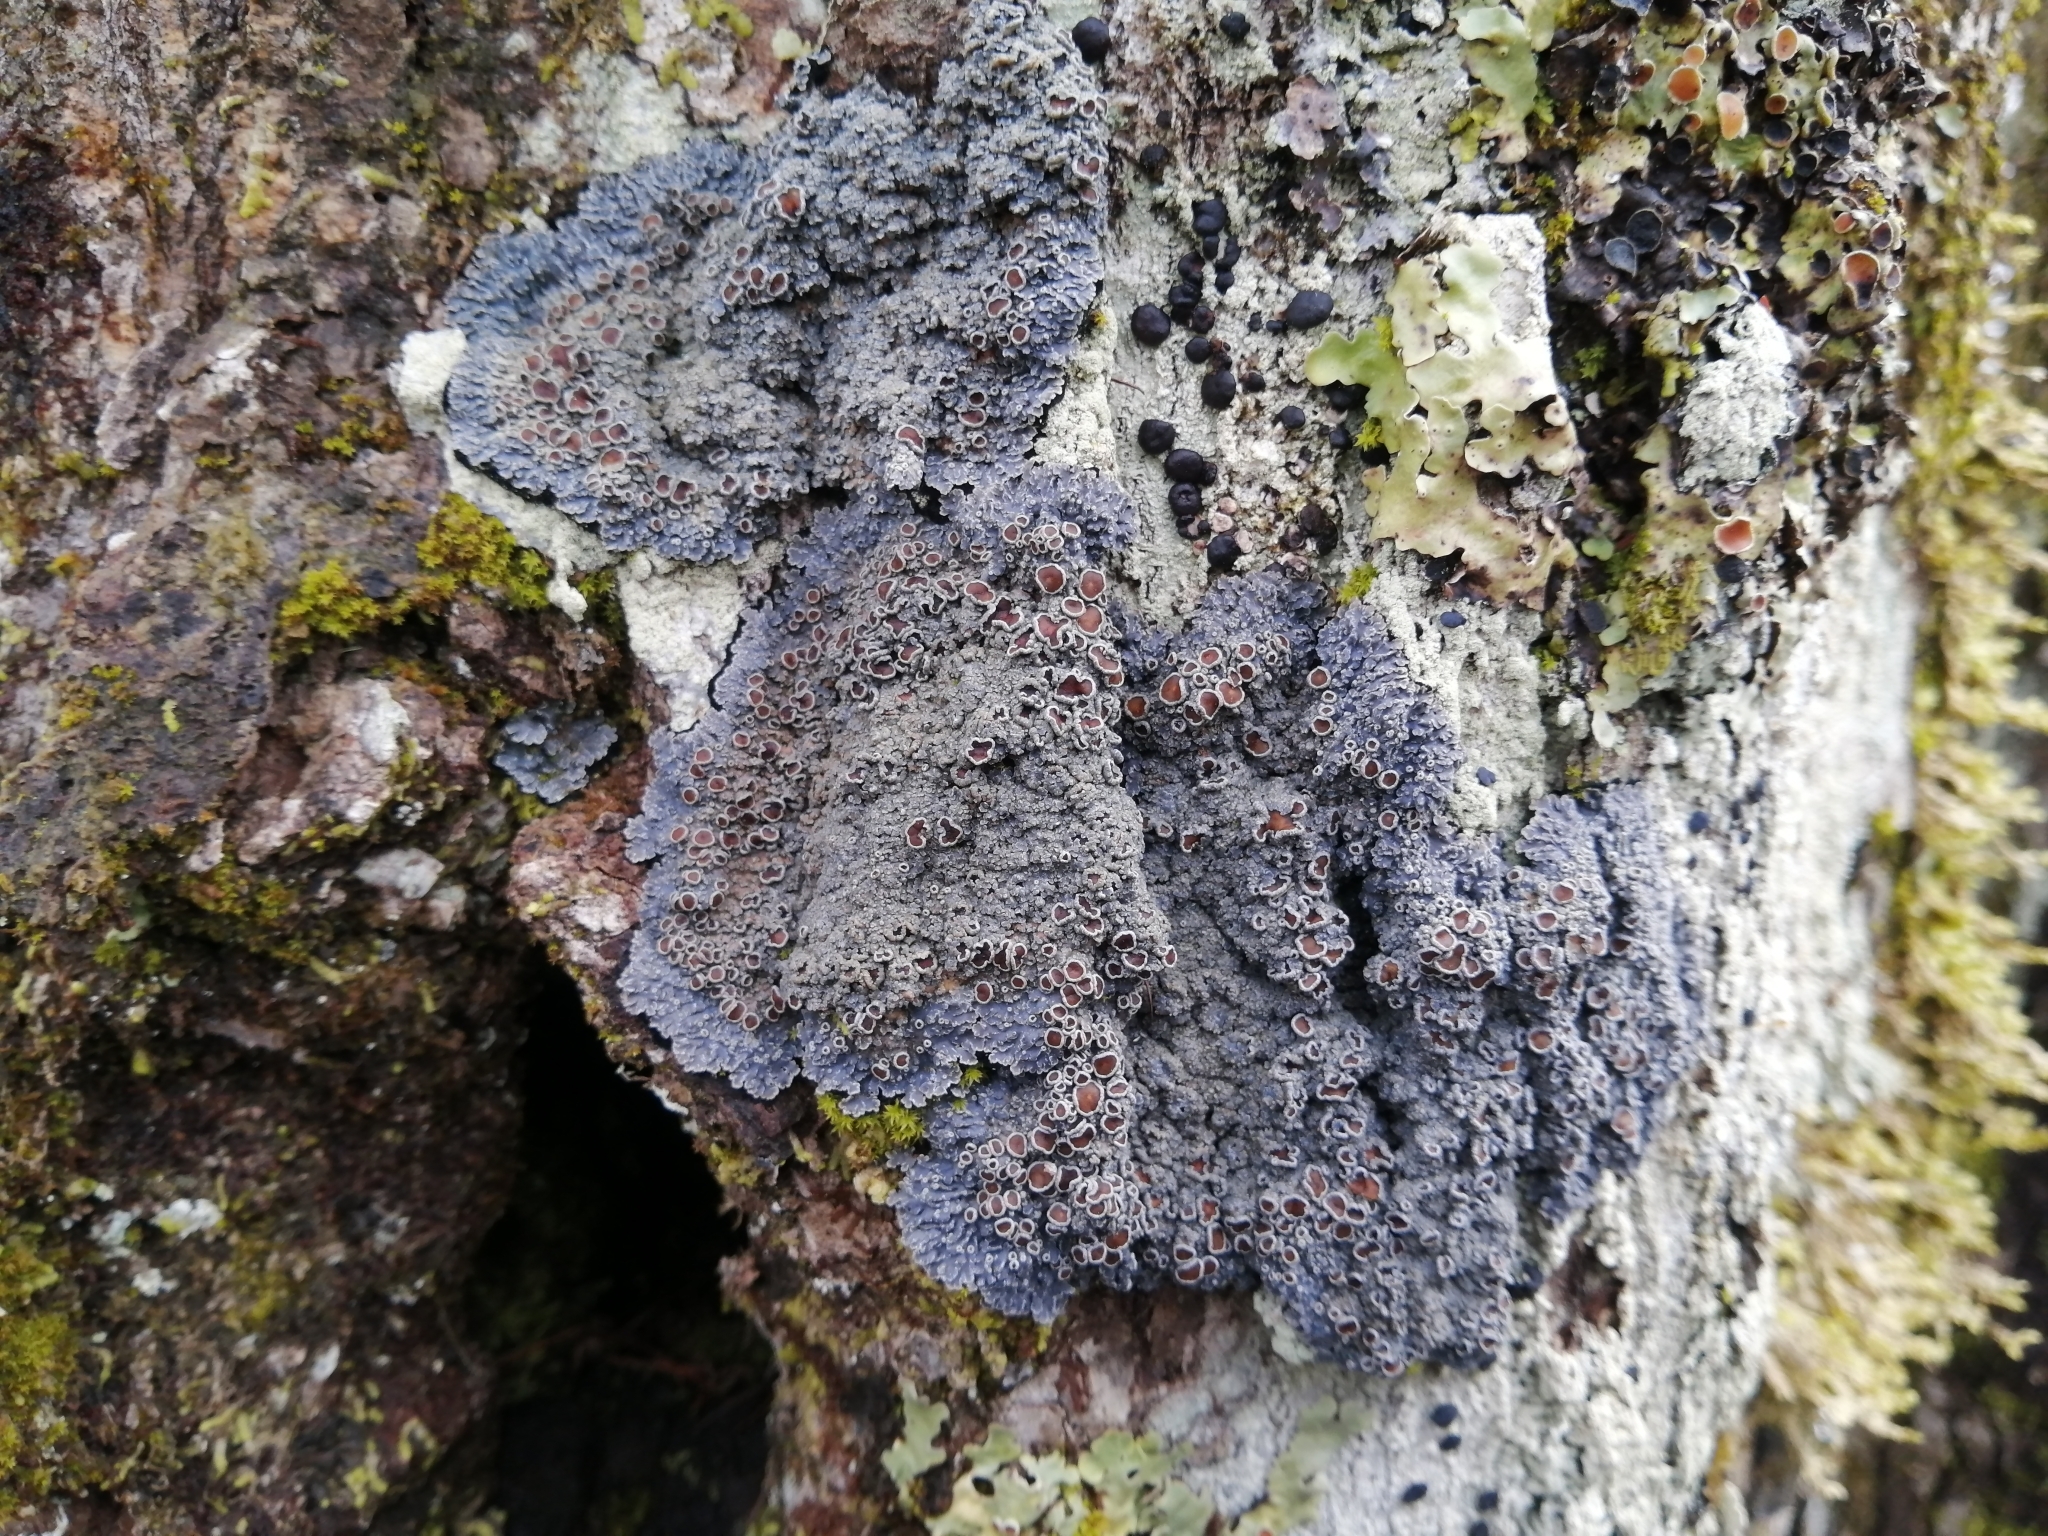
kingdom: Fungi
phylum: Ascomycota
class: Lecanoromycetes
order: Peltigerales
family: Pannariaceae
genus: Pannaria
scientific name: Pannaria rubiginosa
